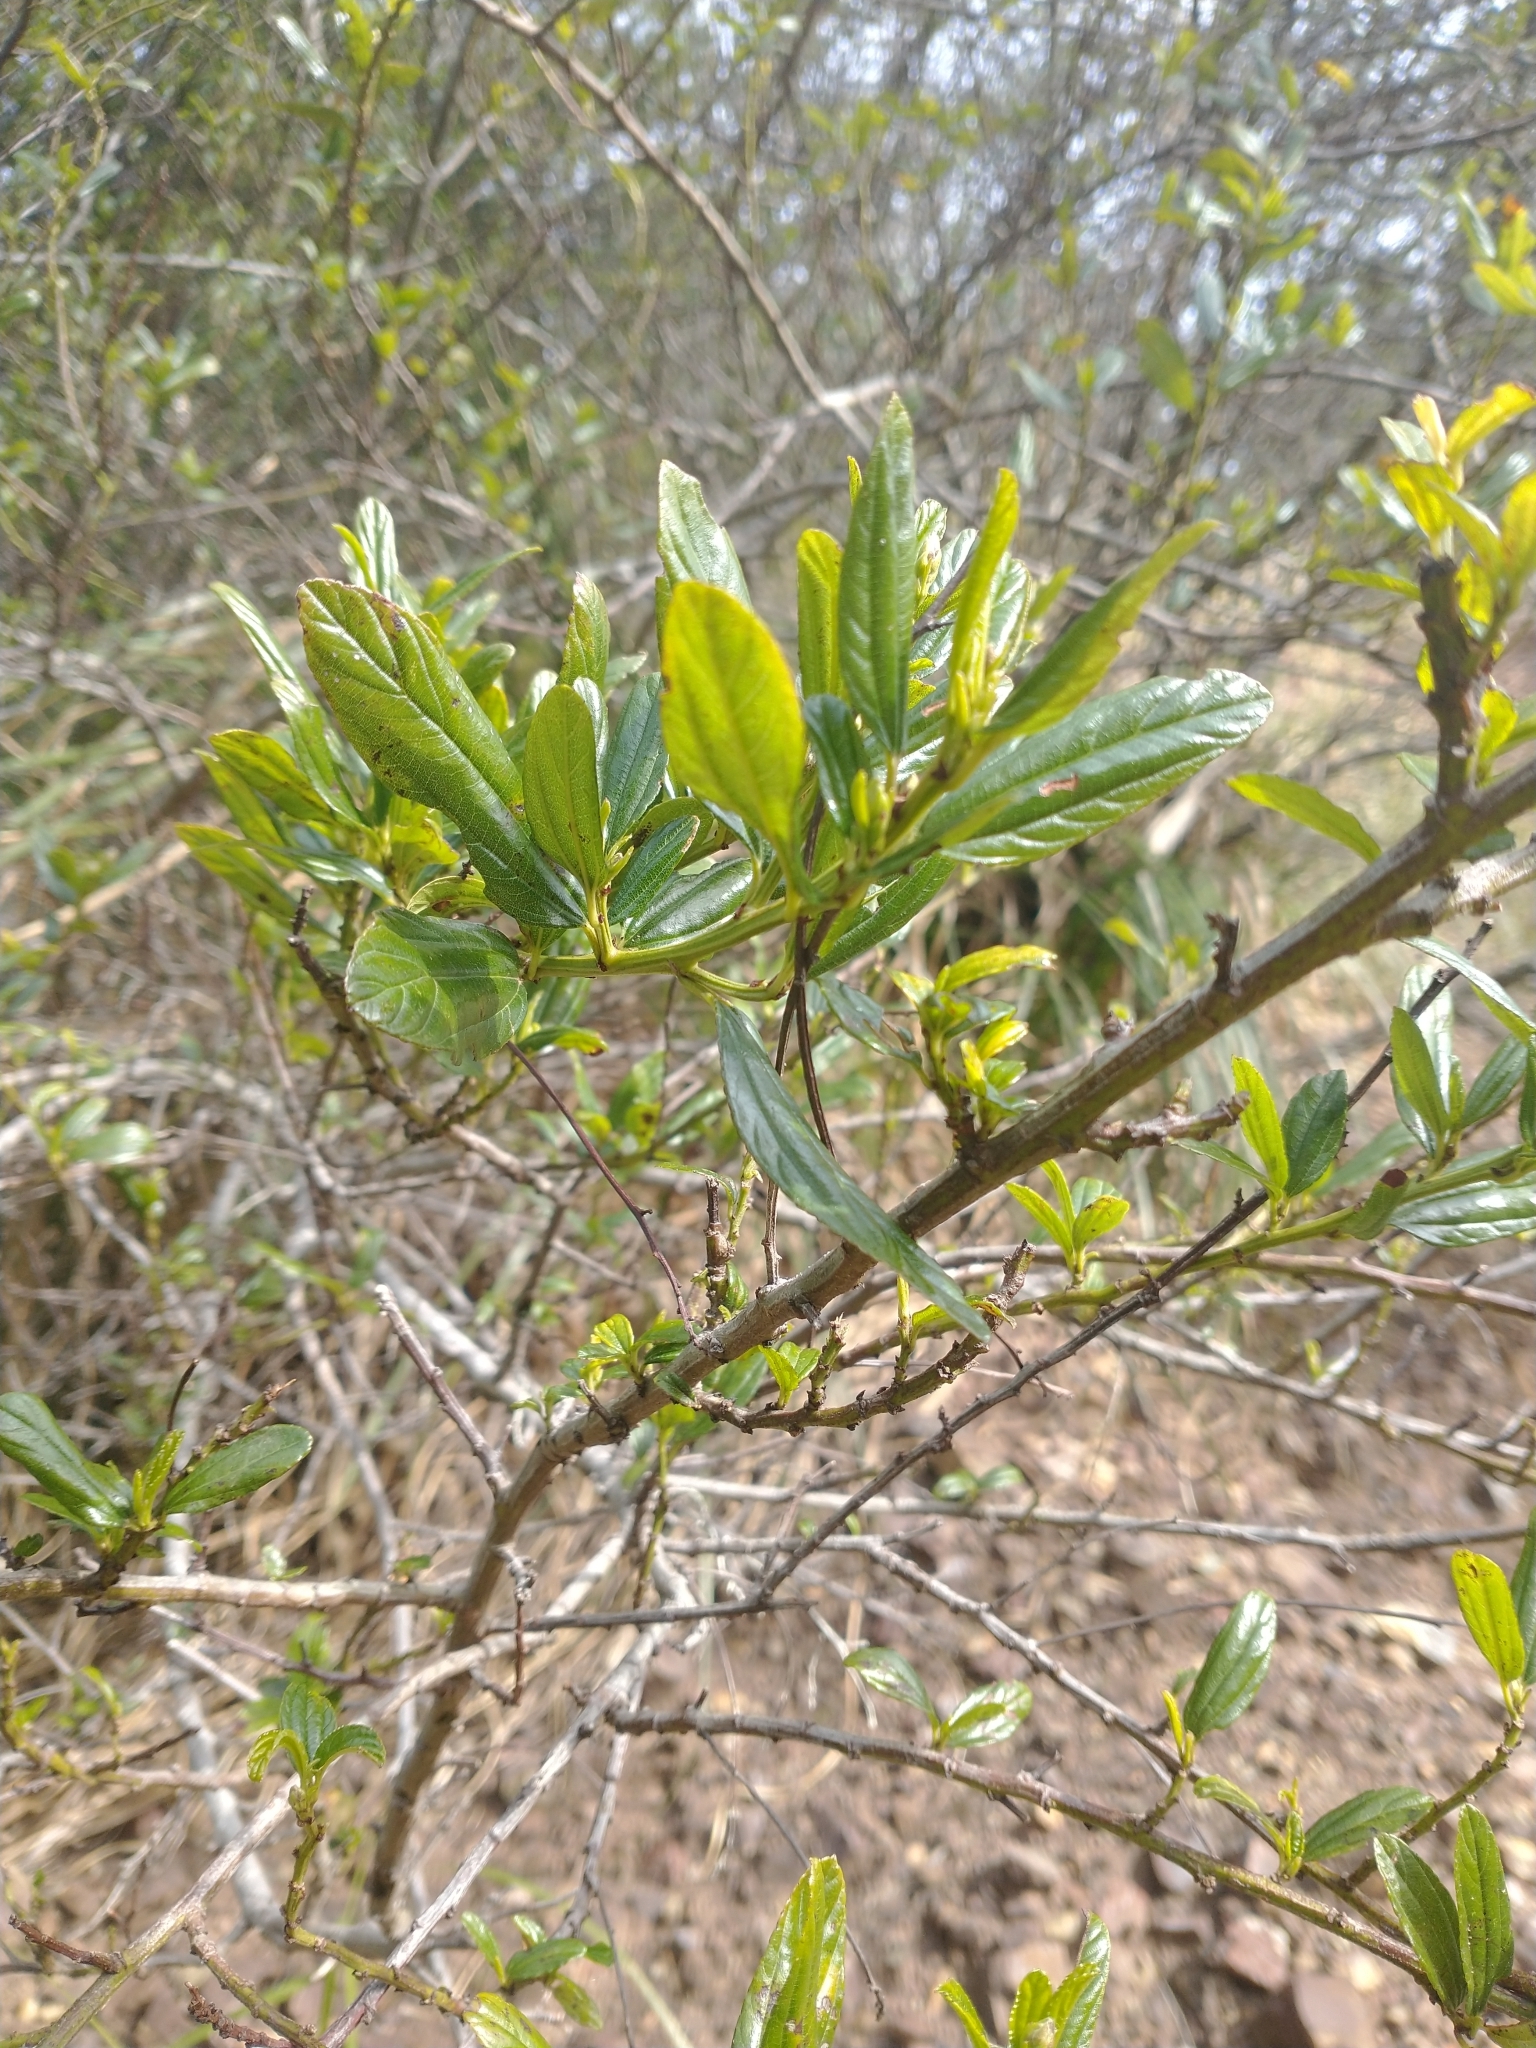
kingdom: Plantae
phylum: Tracheophyta
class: Magnoliopsida
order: Rosales
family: Rhamnaceae
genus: Ceanothus
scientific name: Ceanothus thyrsiflorus
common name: California-lilac
